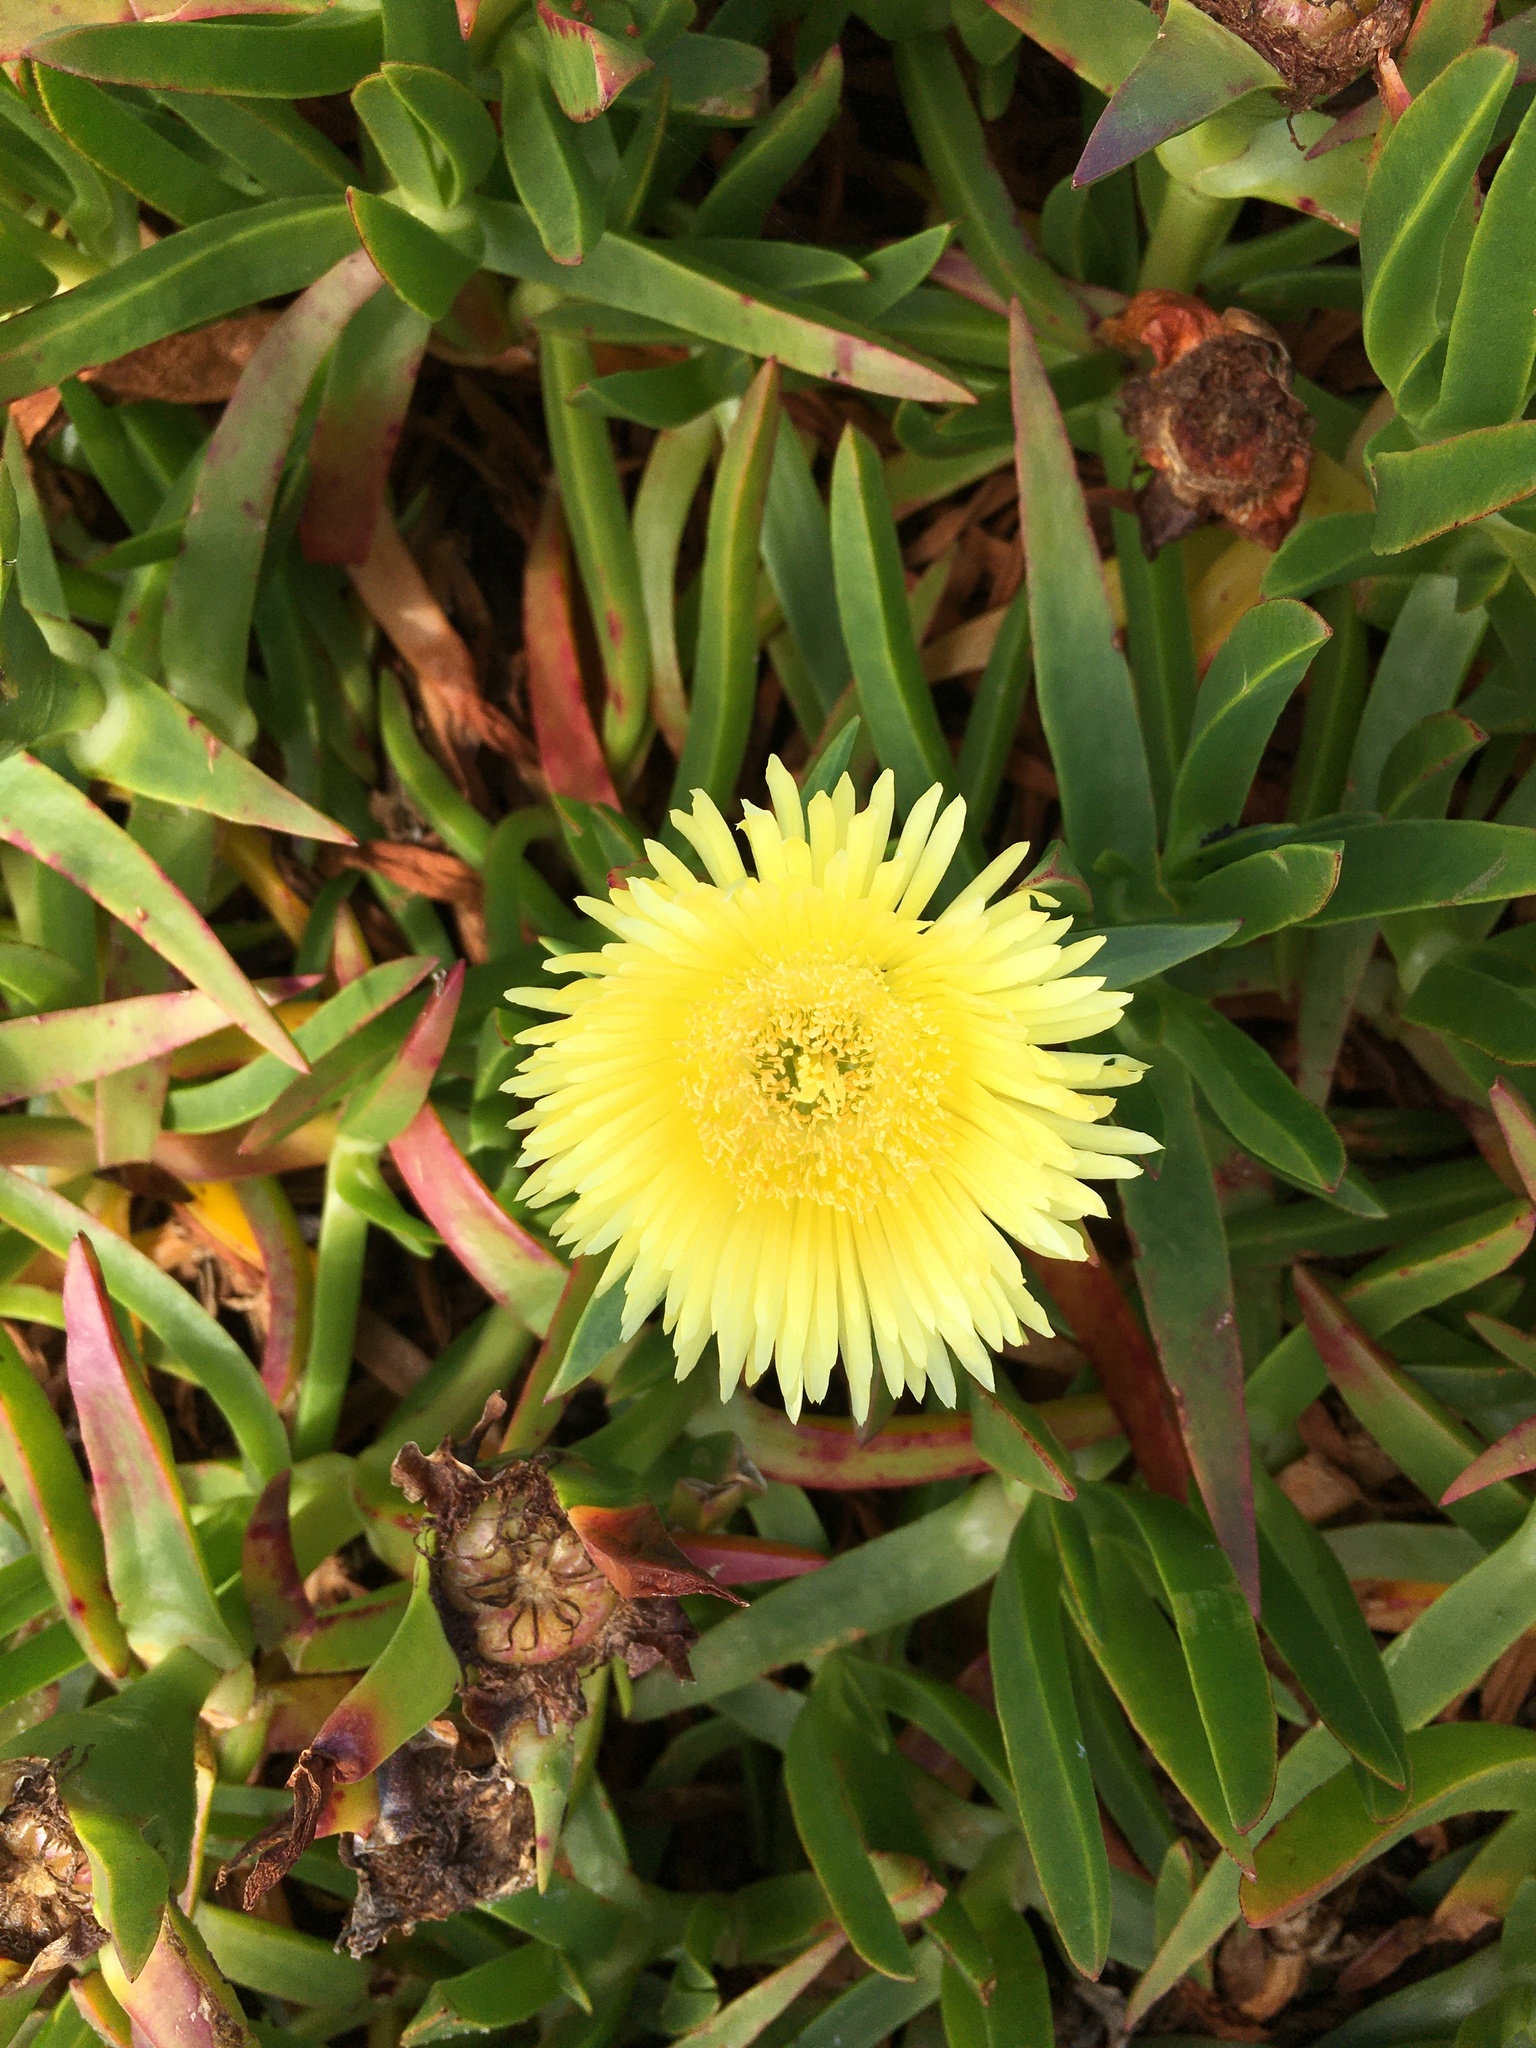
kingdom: Plantae
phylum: Tracheophyta
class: Magnoliopsida
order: Caryophyllales
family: Aizoaceae
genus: Carpobrotus
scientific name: Carpobrotus edulis
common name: Hottentot-fig
